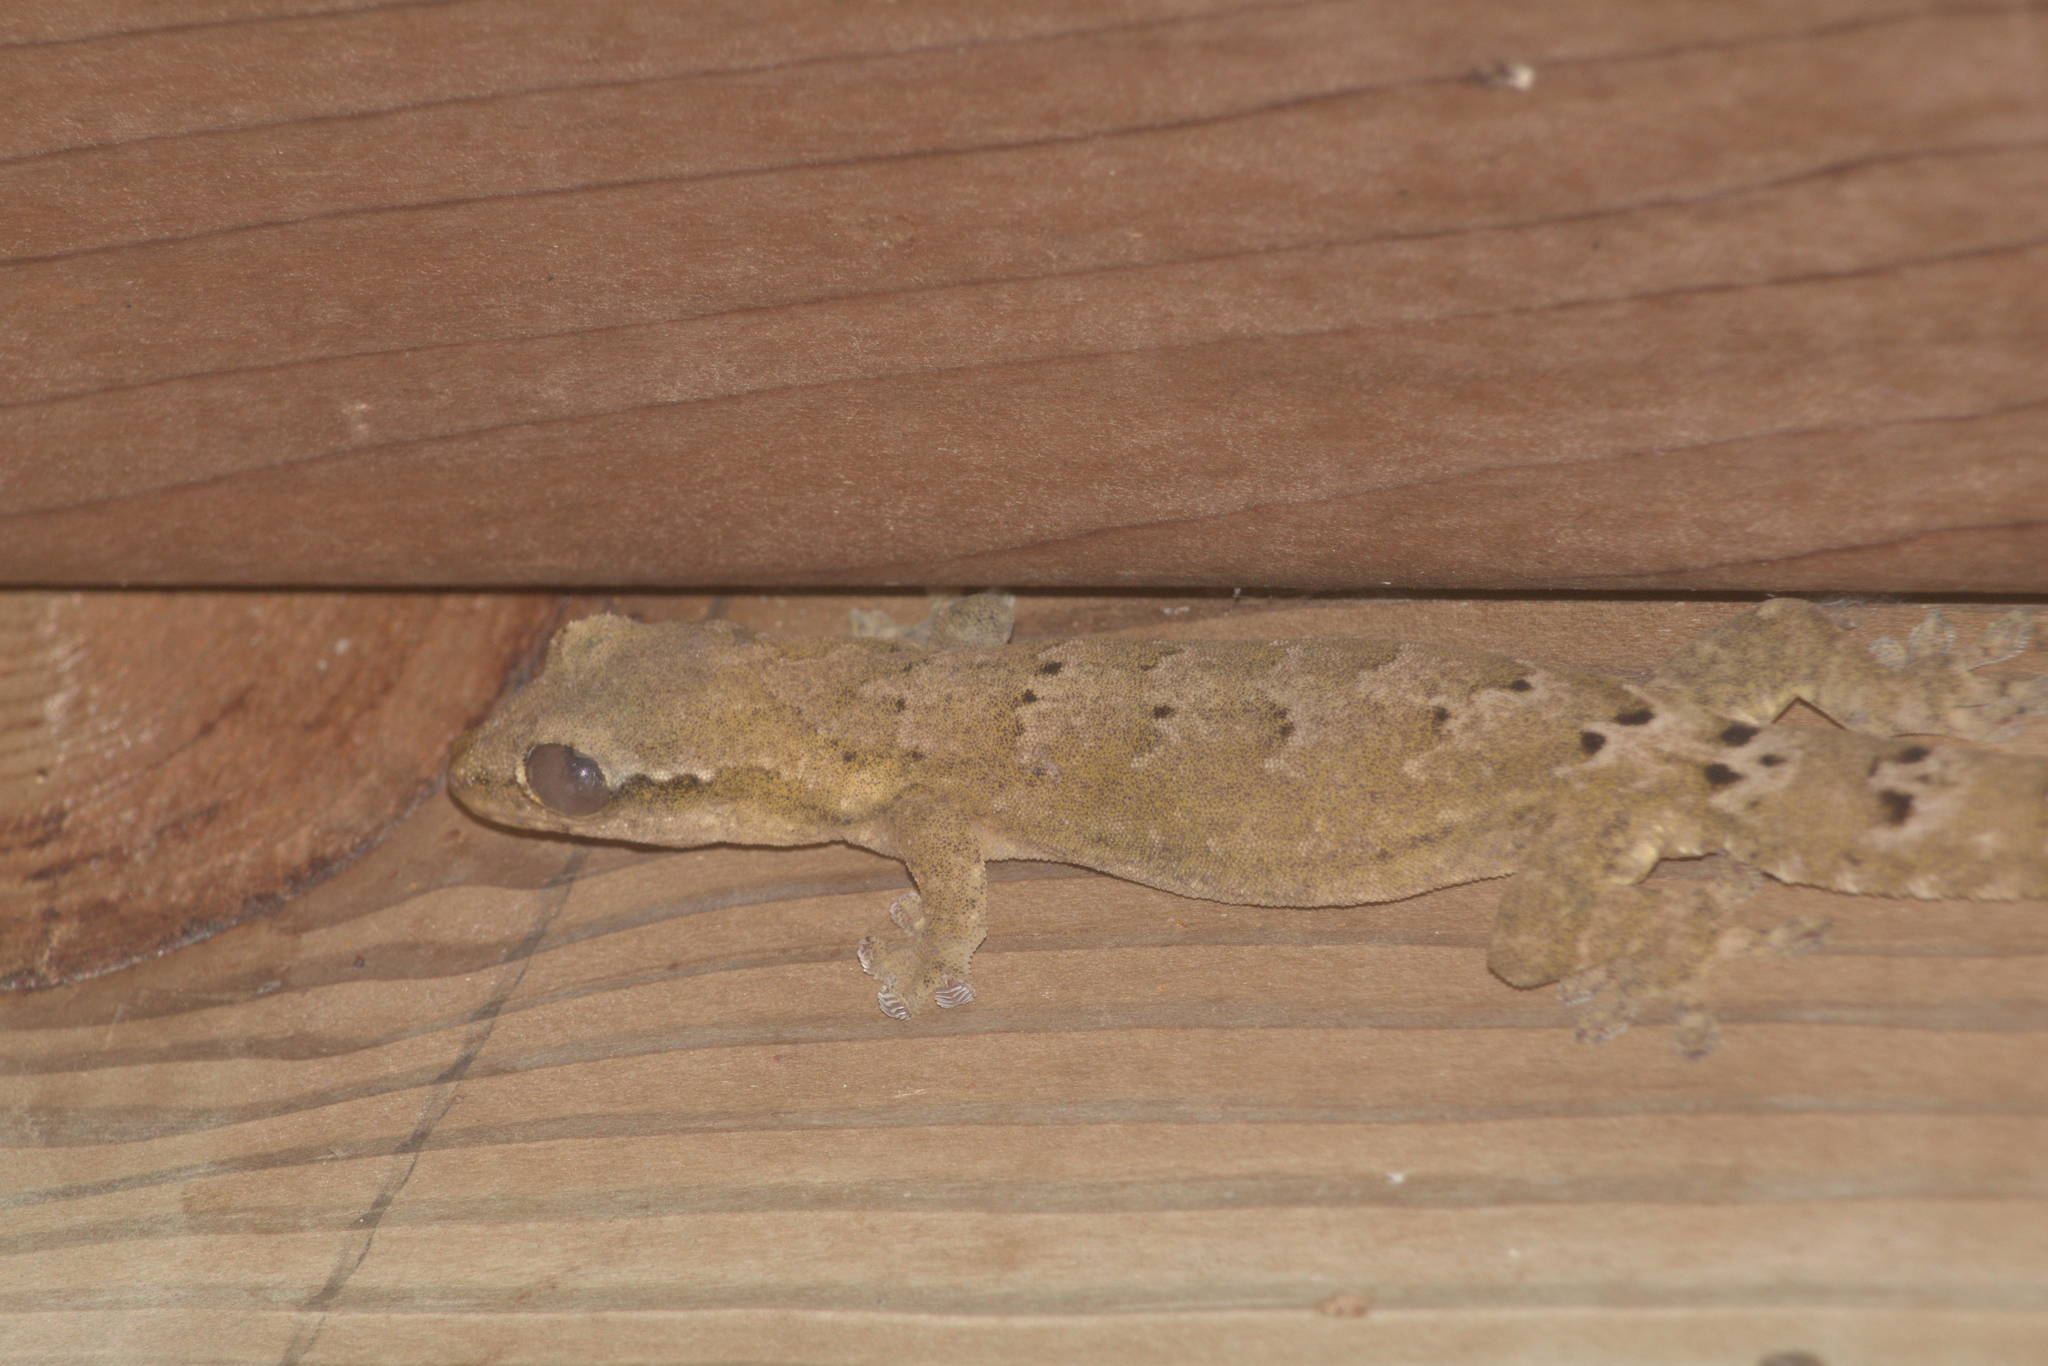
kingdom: Animalia
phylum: Chordata
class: Squamata
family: Gekkonidae
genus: Lepidodactylus
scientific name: Lepidodactylus lugubris
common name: Mourning gecko
